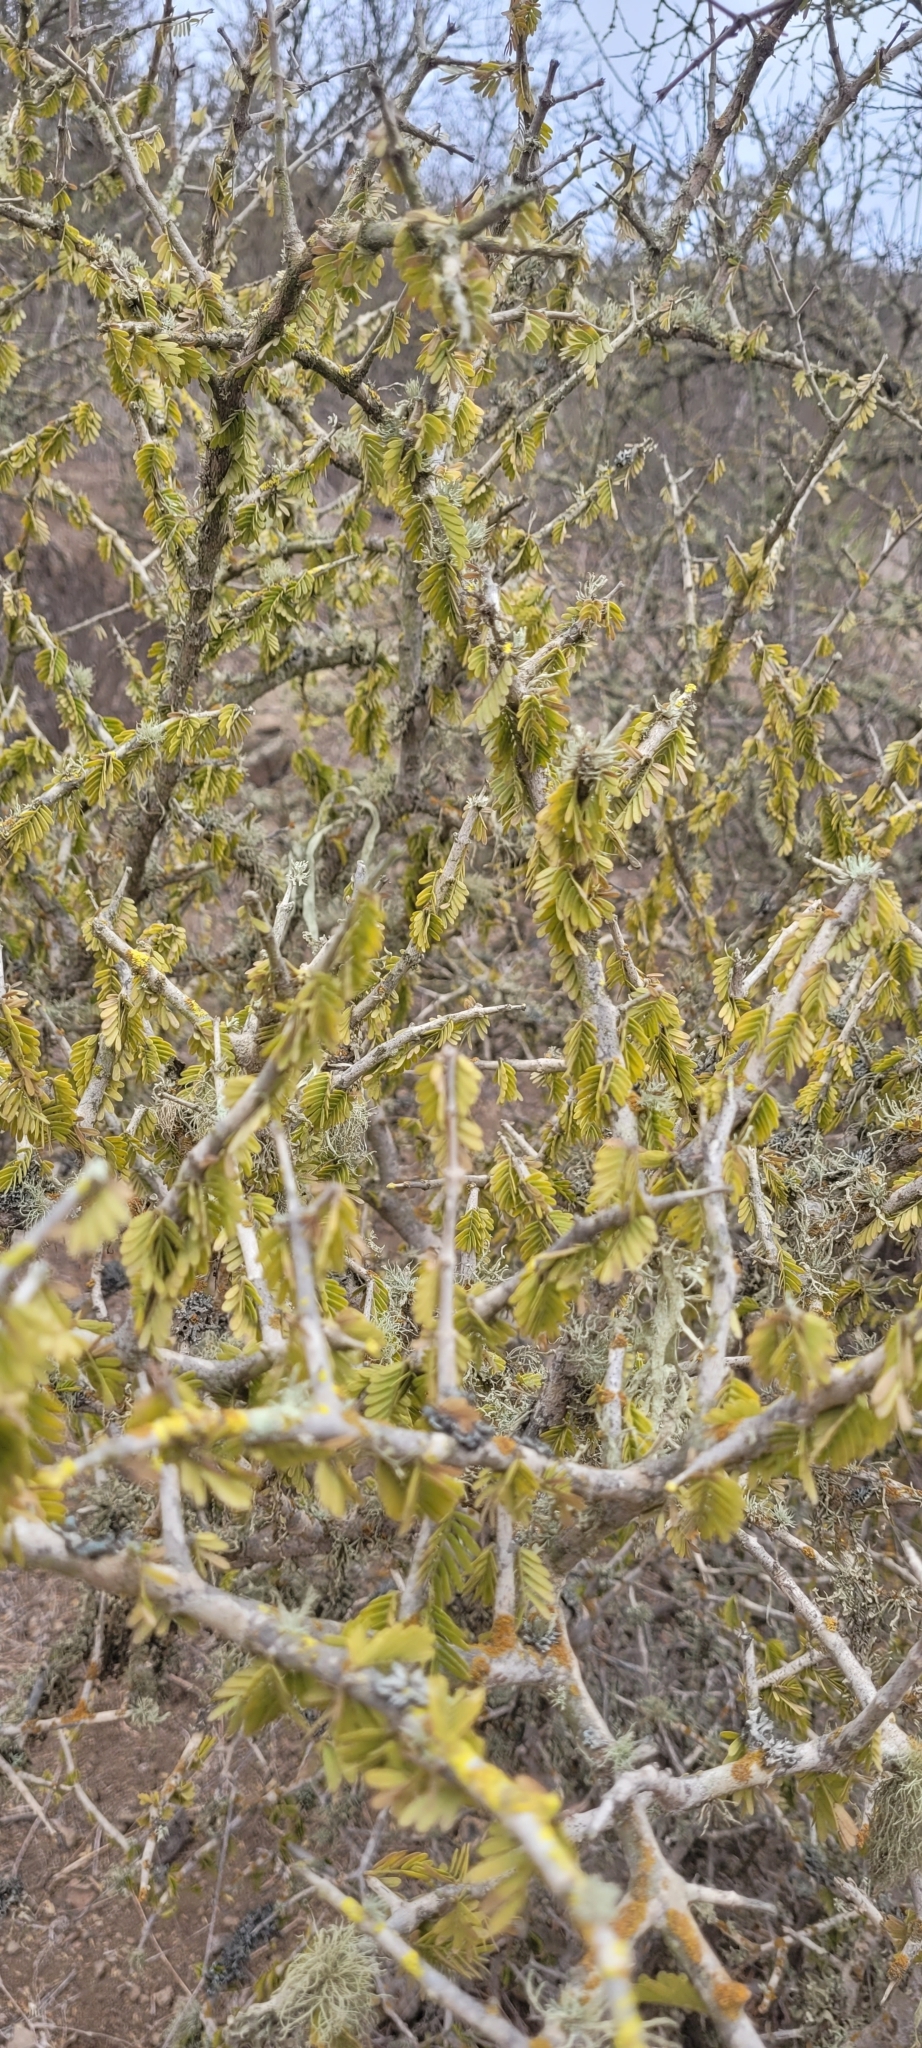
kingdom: Plantae
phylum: Tracheophyta
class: Magnoliopsida
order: Zygophyllales
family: Zygophyllaceae
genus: Porlieria
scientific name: Porlieria chilensis
